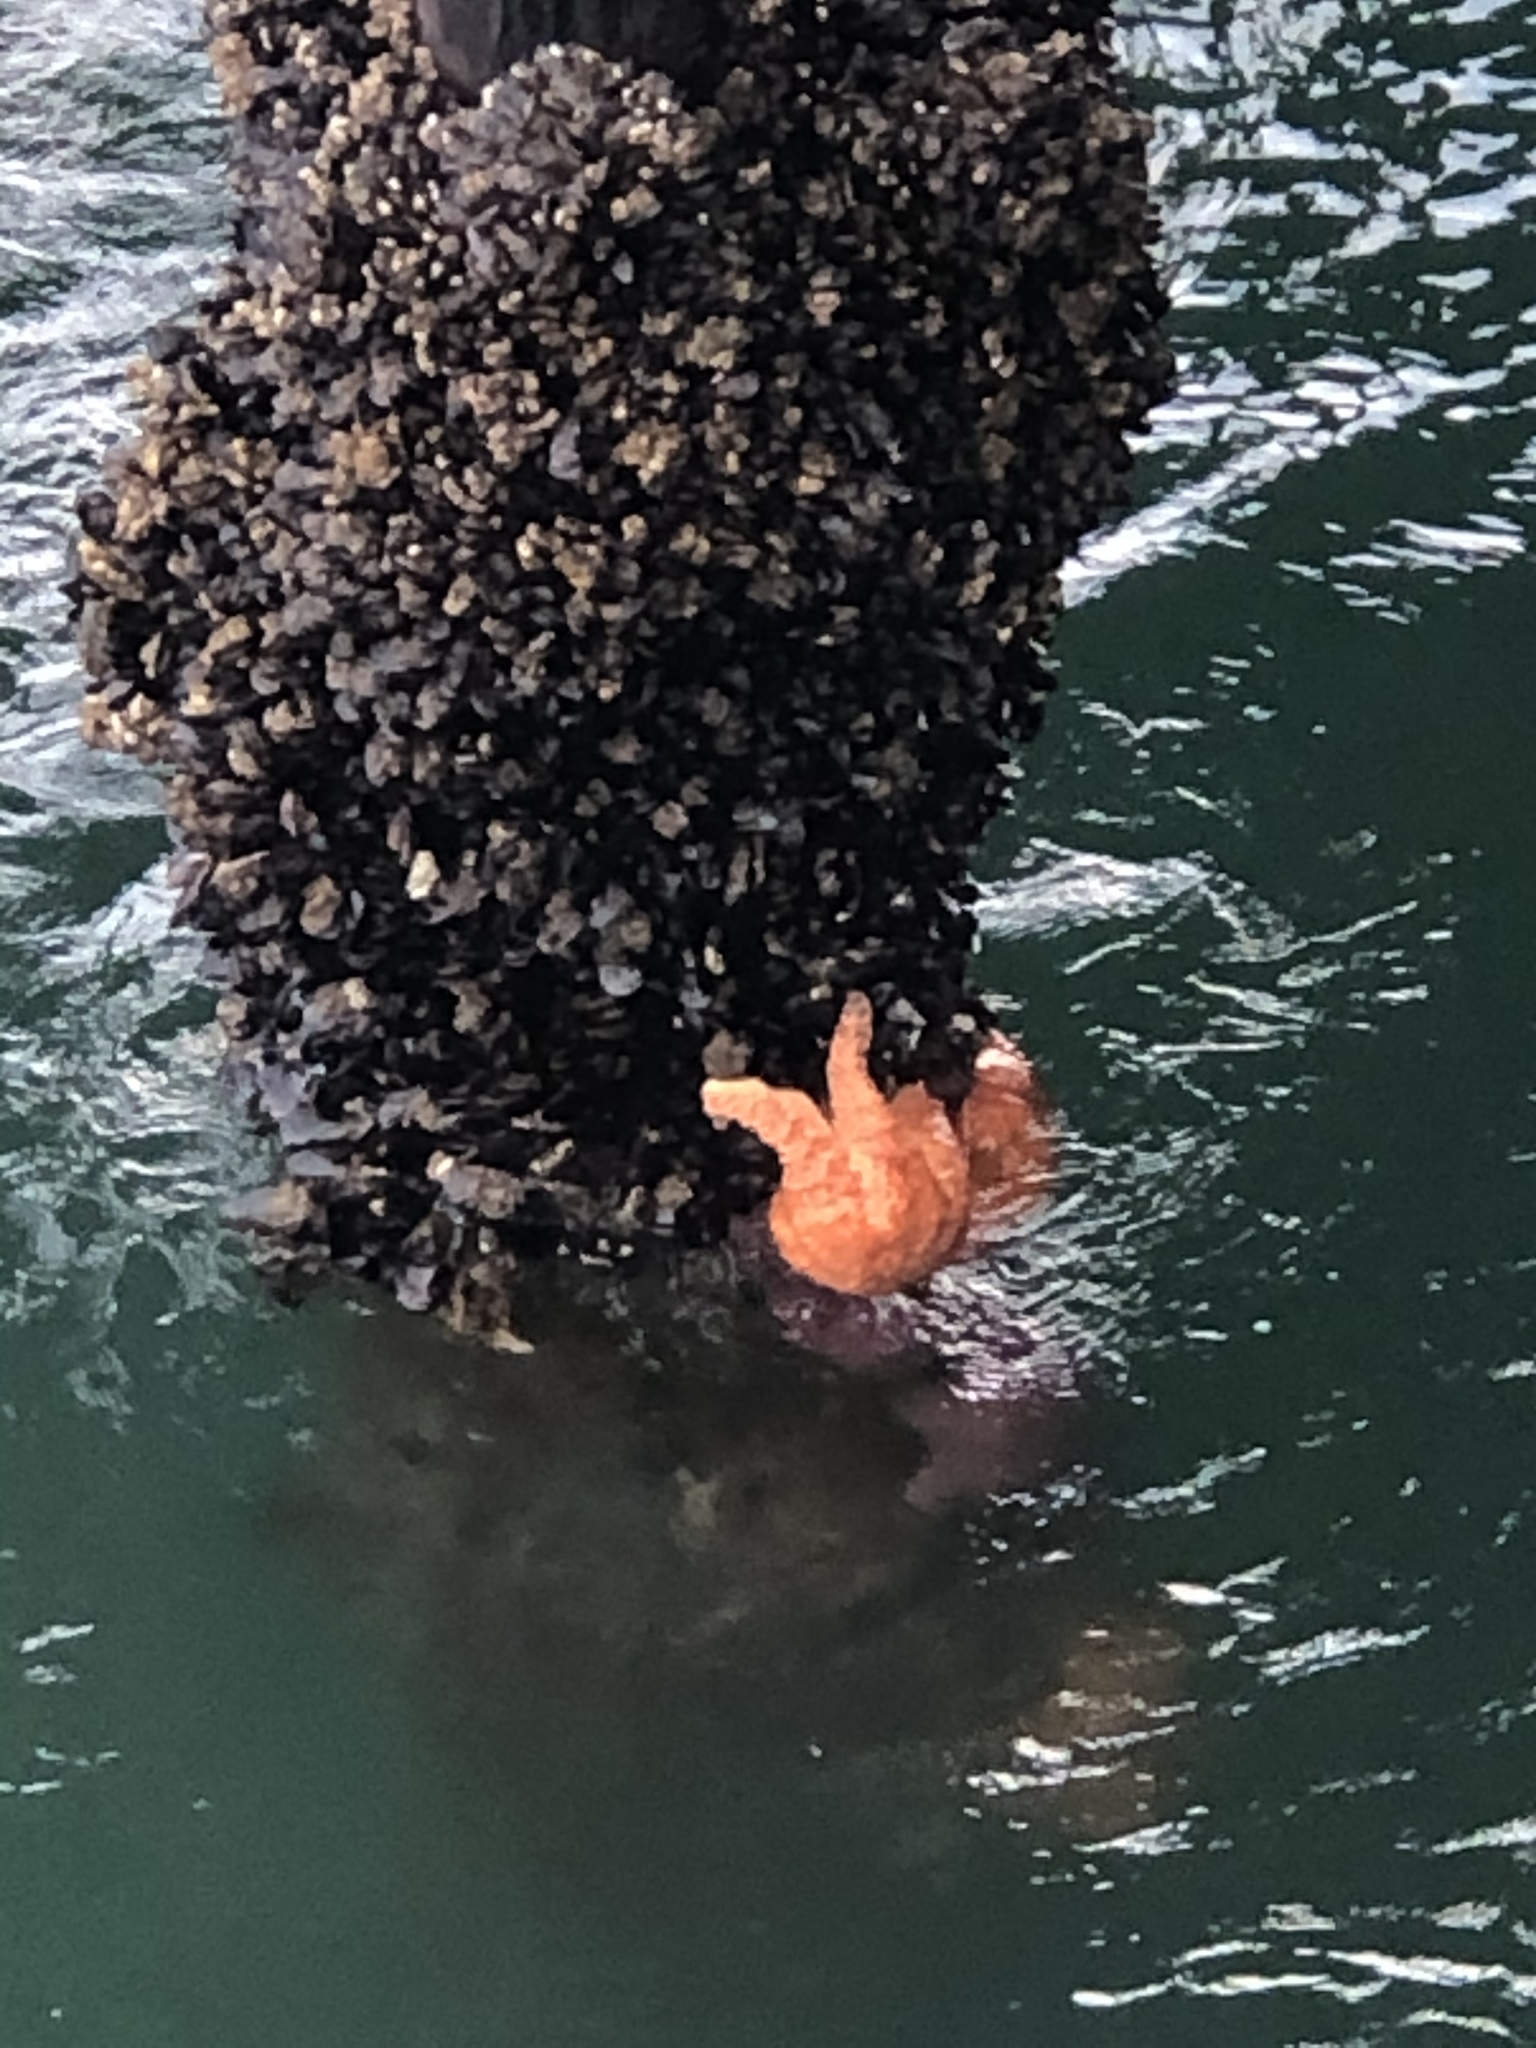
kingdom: Animalia
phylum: Echinodermata
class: Asteroidea
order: Forcipulatida
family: Asteriidae
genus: Pisaster
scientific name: Pisaster ochraceus
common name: Ochre stars
